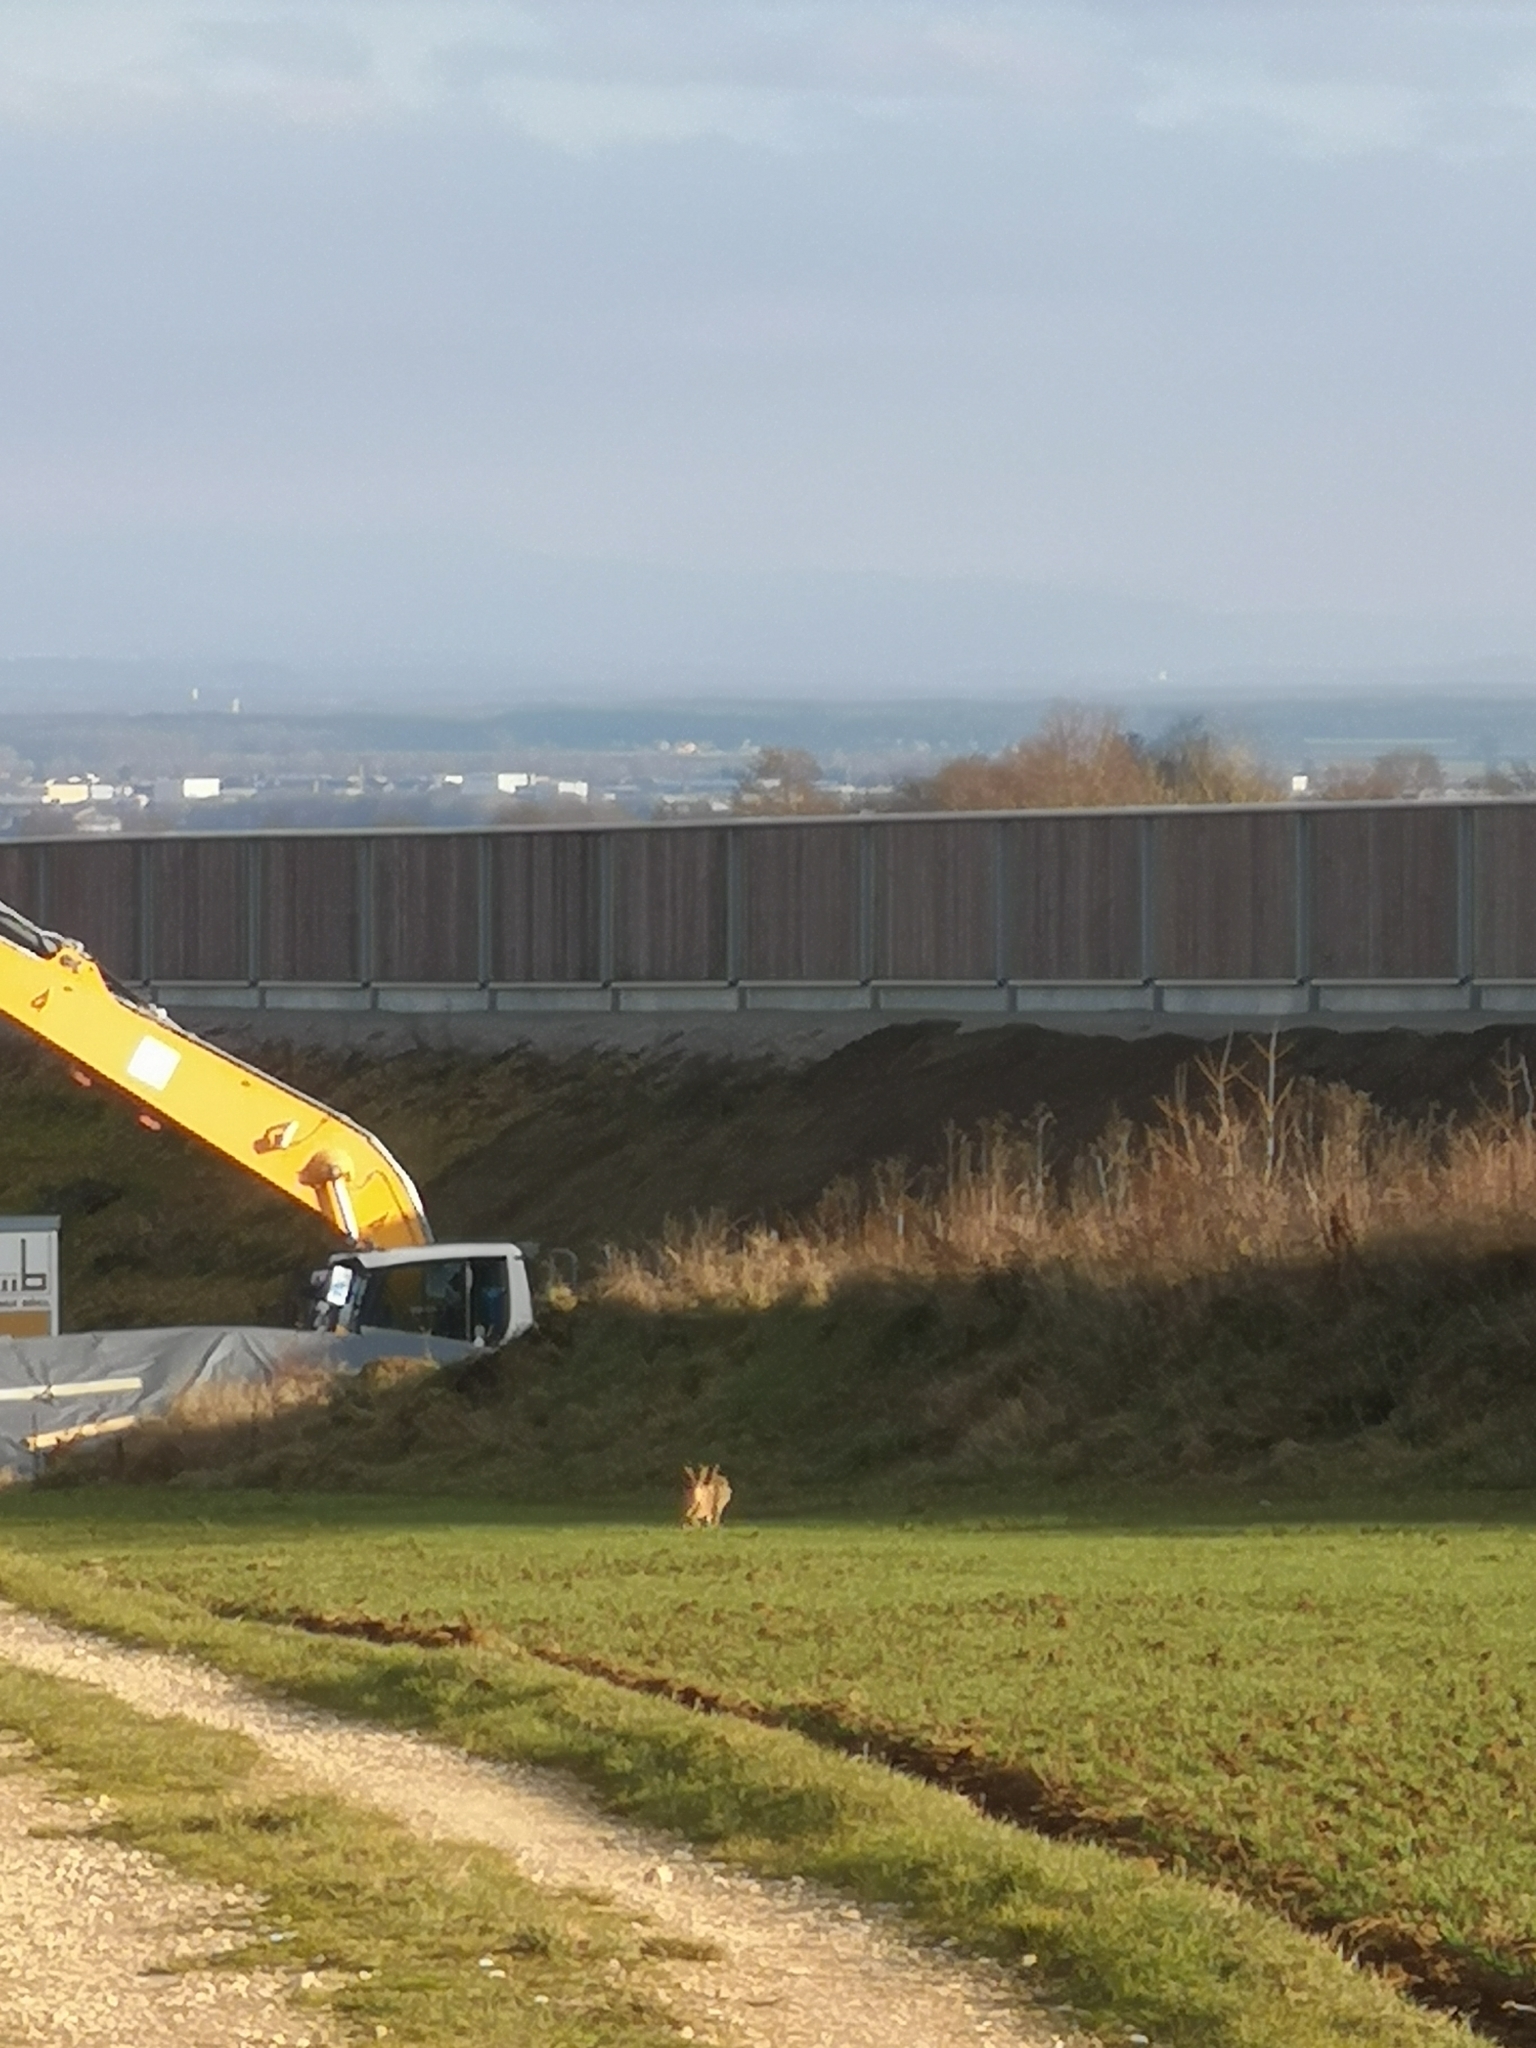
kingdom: Animalia
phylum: Chordata
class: Mammalia
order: Lagomorpha
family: Leporidae
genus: Lepus
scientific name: Lepus europaeus
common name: European hare
